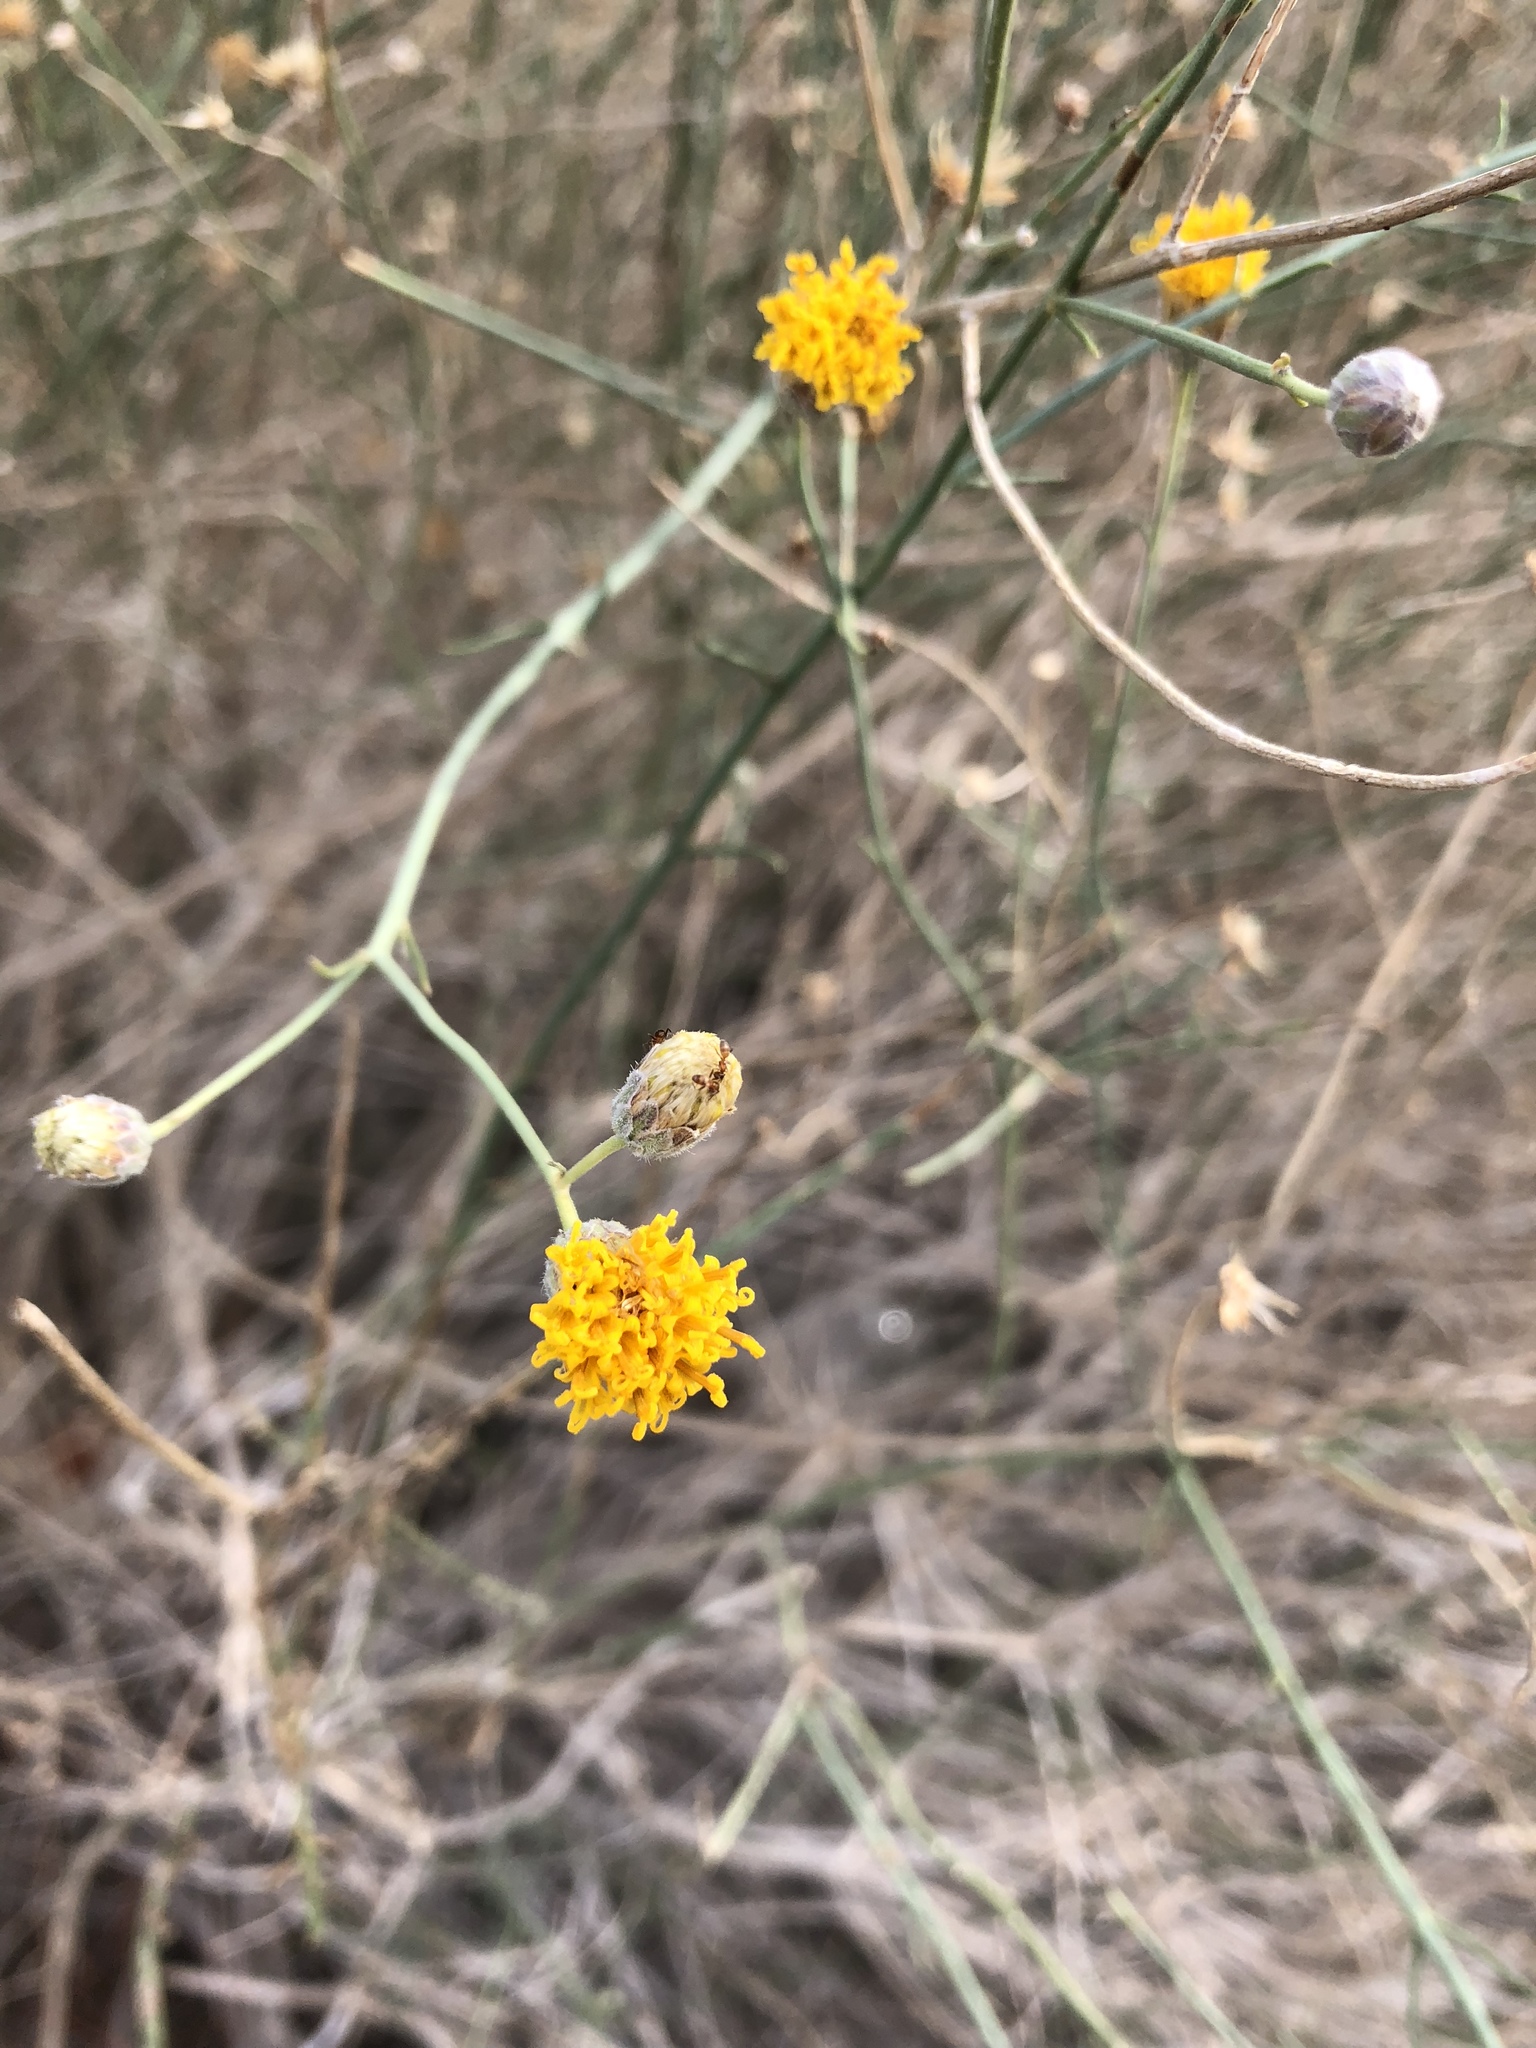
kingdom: Plantae
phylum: Tracheophyta
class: Magnoliopsida
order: Asterales
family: Asteraceae
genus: Bebbia
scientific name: Bebbia juncea
